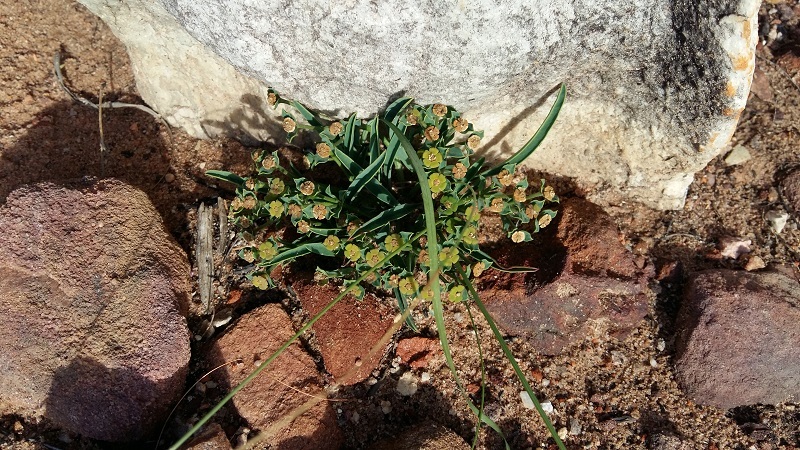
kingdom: Plantae
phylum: Tracheophyta
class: Magnoliopsida
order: Malpighiales
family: Euphorbiaceae
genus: Euphorbia
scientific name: Euphorbia silenifolia
